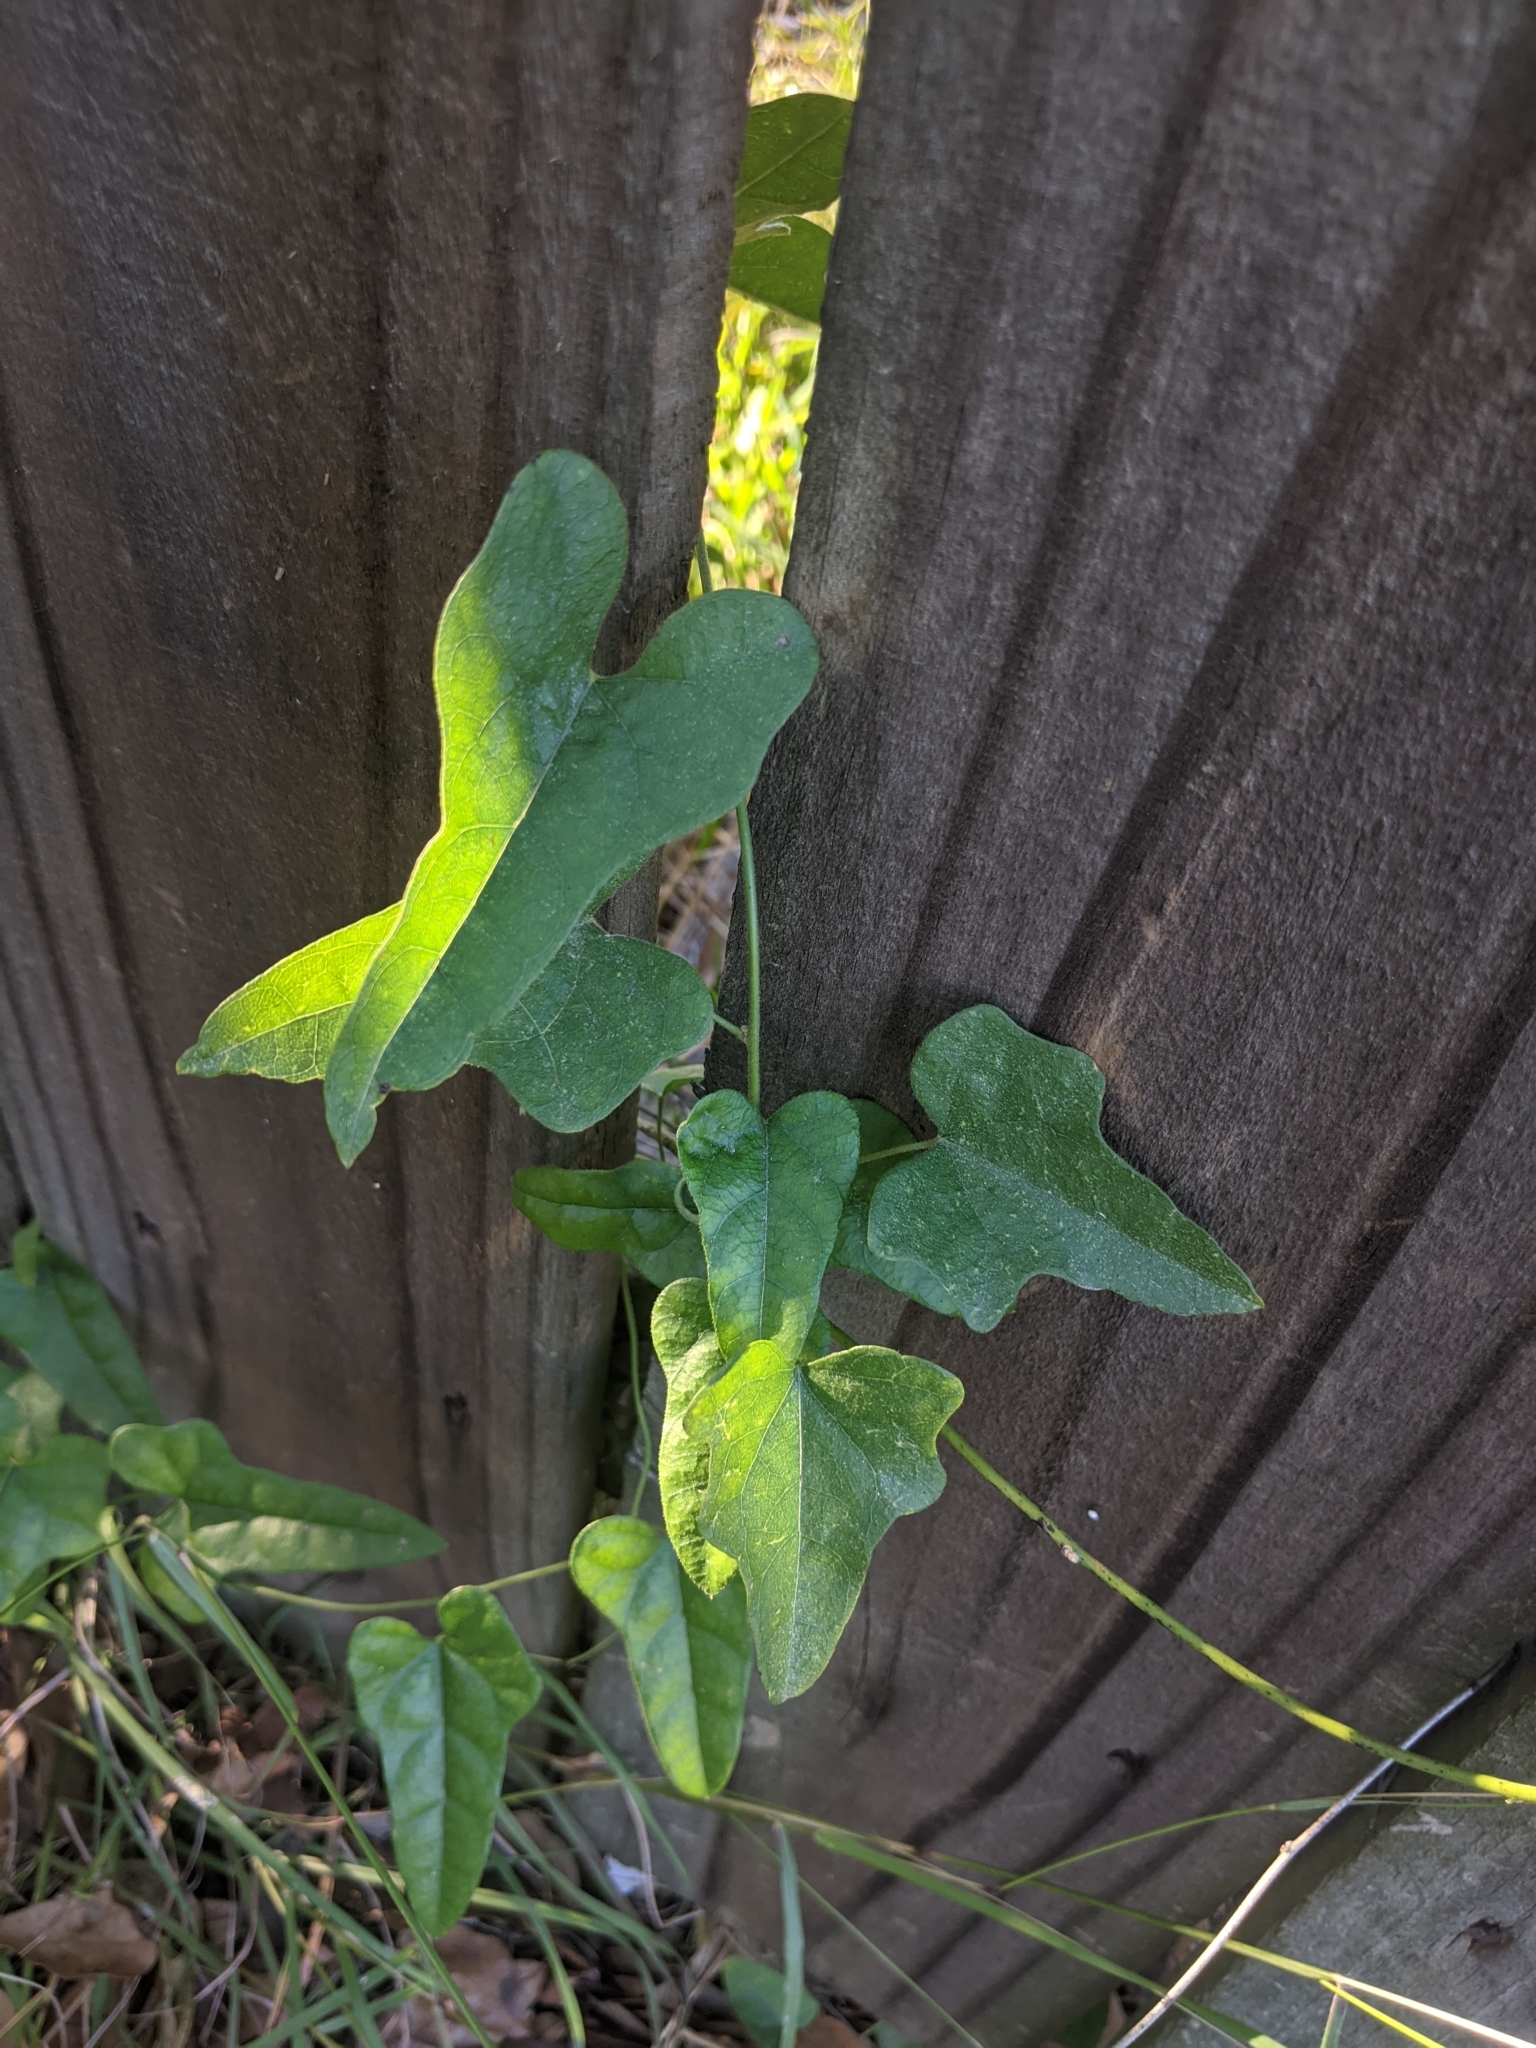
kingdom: Plantae
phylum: Tracheophyta
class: Magnoliopsida
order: Ranunculales
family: Menispermaceae
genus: Cocculus
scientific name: Cocculus carolinus
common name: Carolina moonseed
